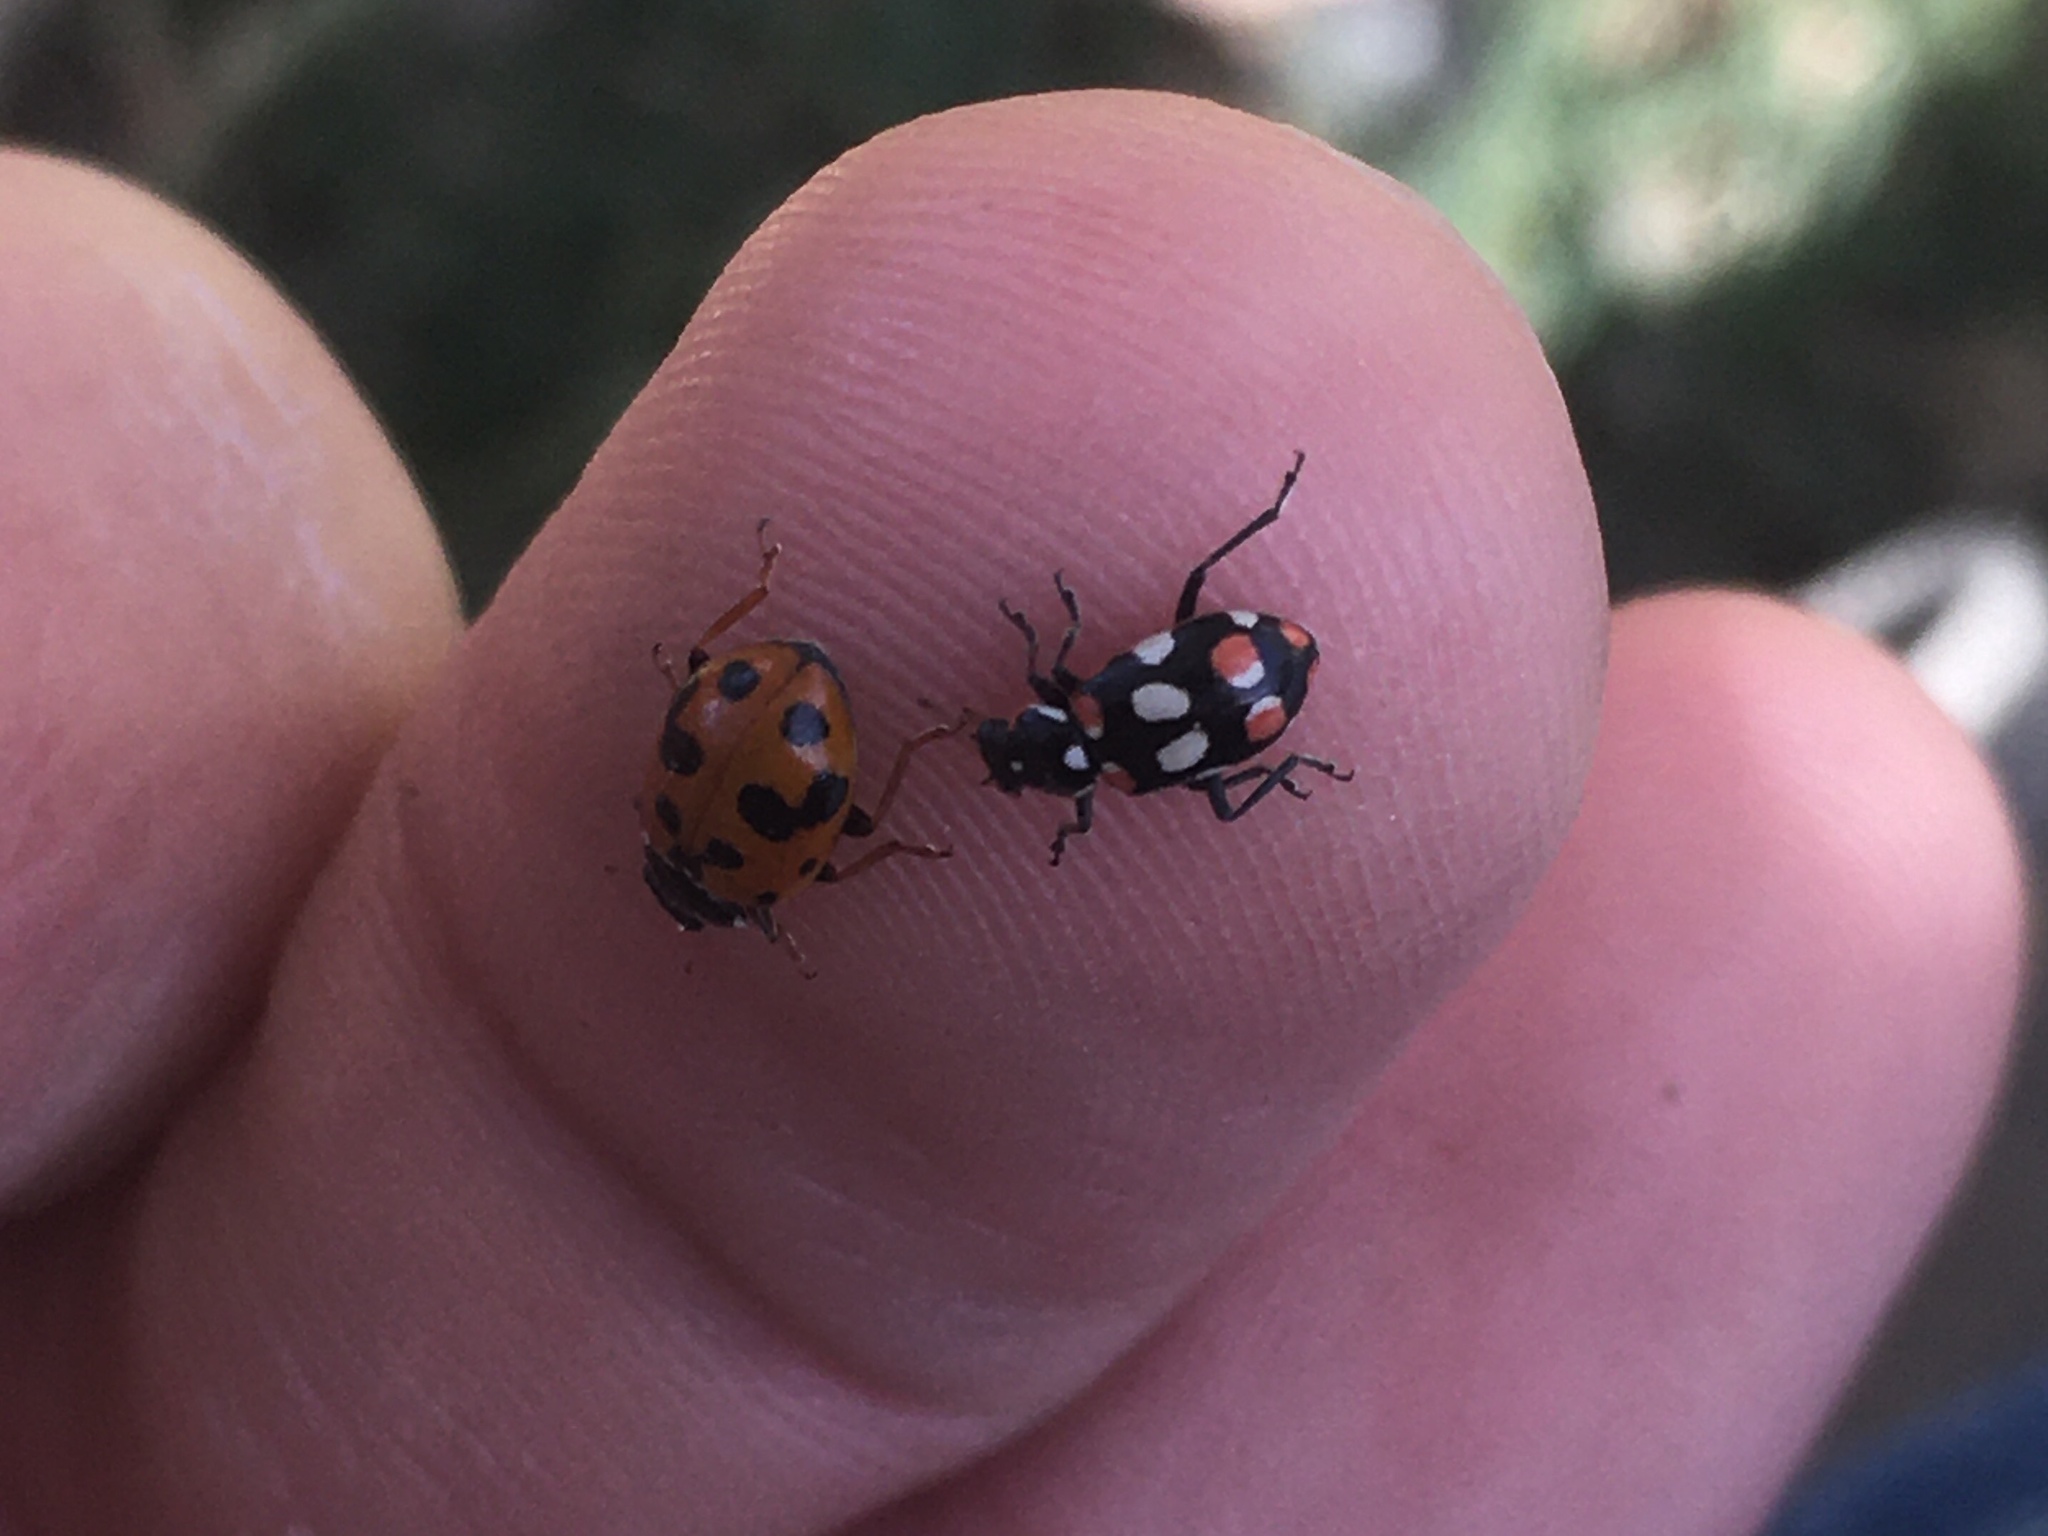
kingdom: Animalia
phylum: Arthropoda
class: Insecta
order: Coleoptera
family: Coccinellidae
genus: Hippodamia
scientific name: Hippodamia variegata
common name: Ladybird beetle
